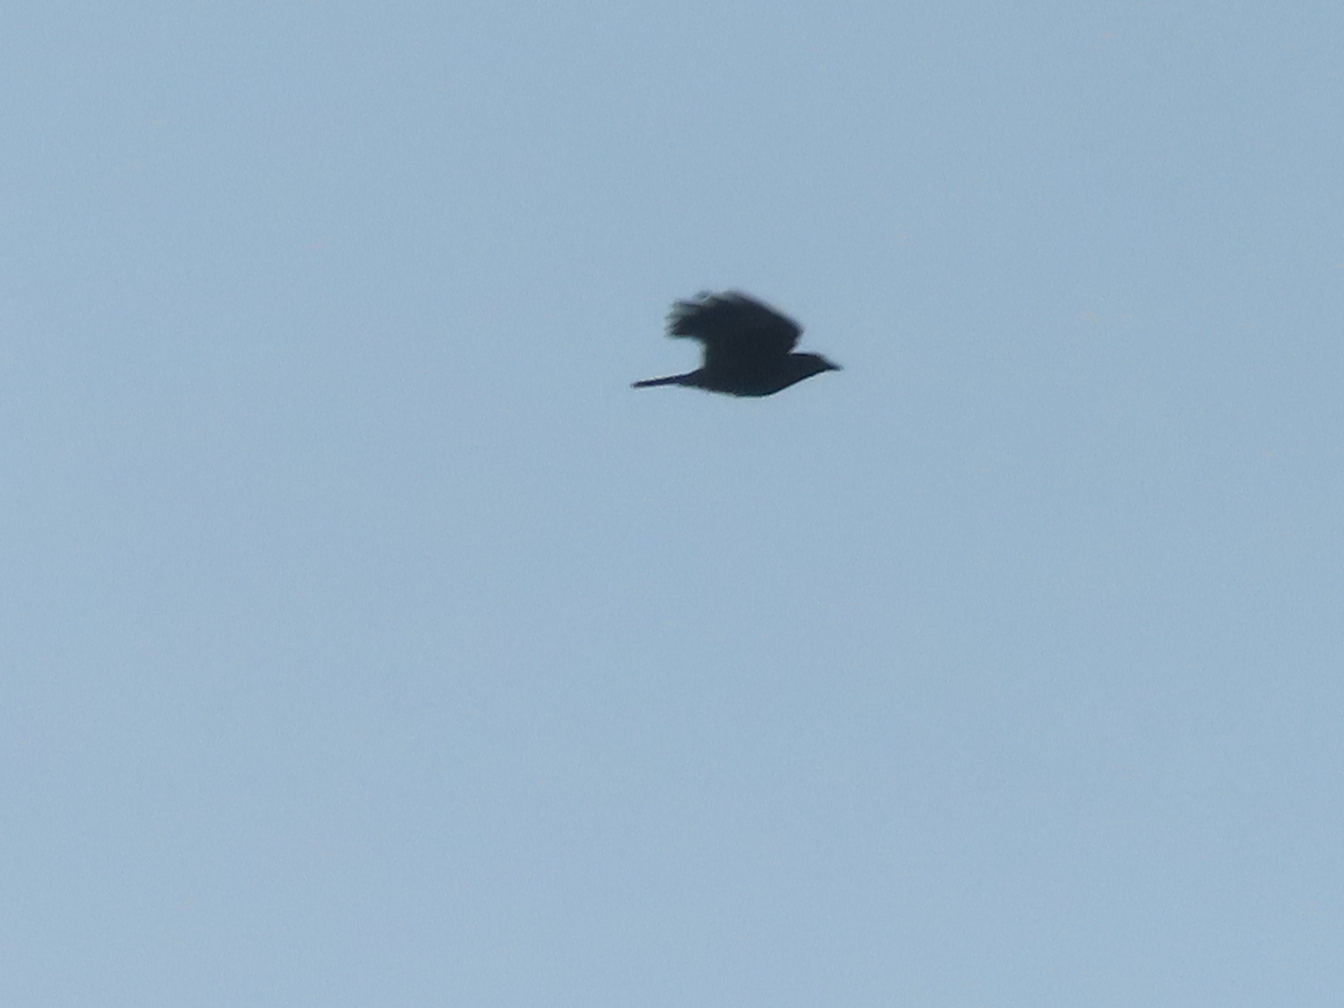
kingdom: Animalia
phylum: Chordata
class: Aves
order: Passeriformes
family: Corvidae
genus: Corvus
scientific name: Corvus brachyrhynchos
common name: American crow
